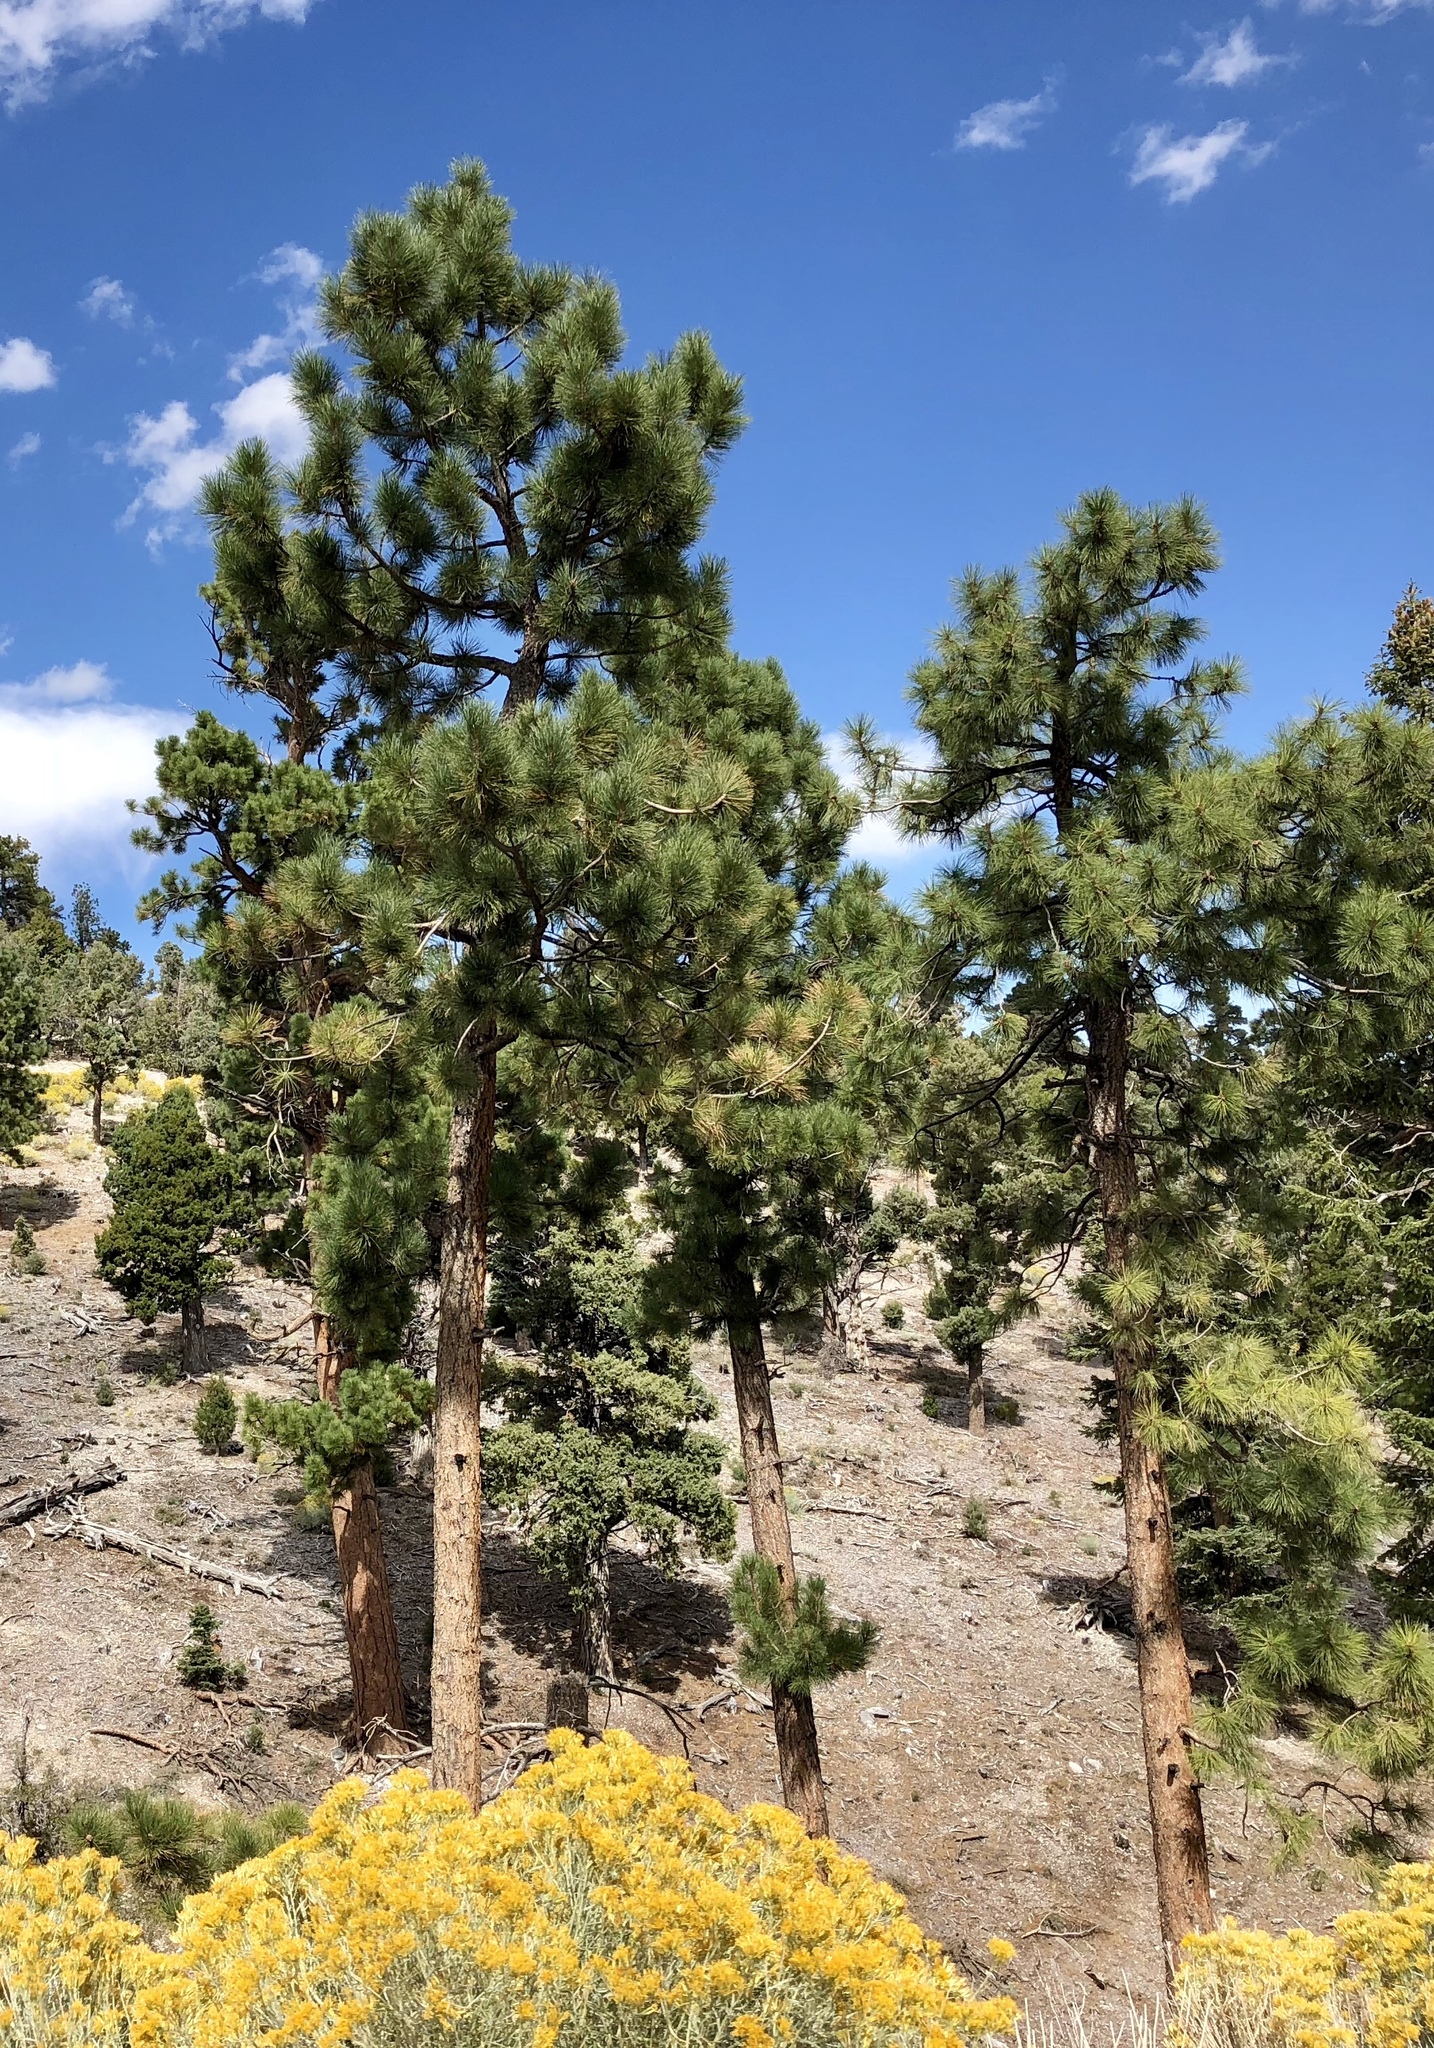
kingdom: Plantae
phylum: Tracheophyta
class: Pinopsida
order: Pinales
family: Pinaceae
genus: Pinus
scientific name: Pinus ponderosa
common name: Western yellow-pine
